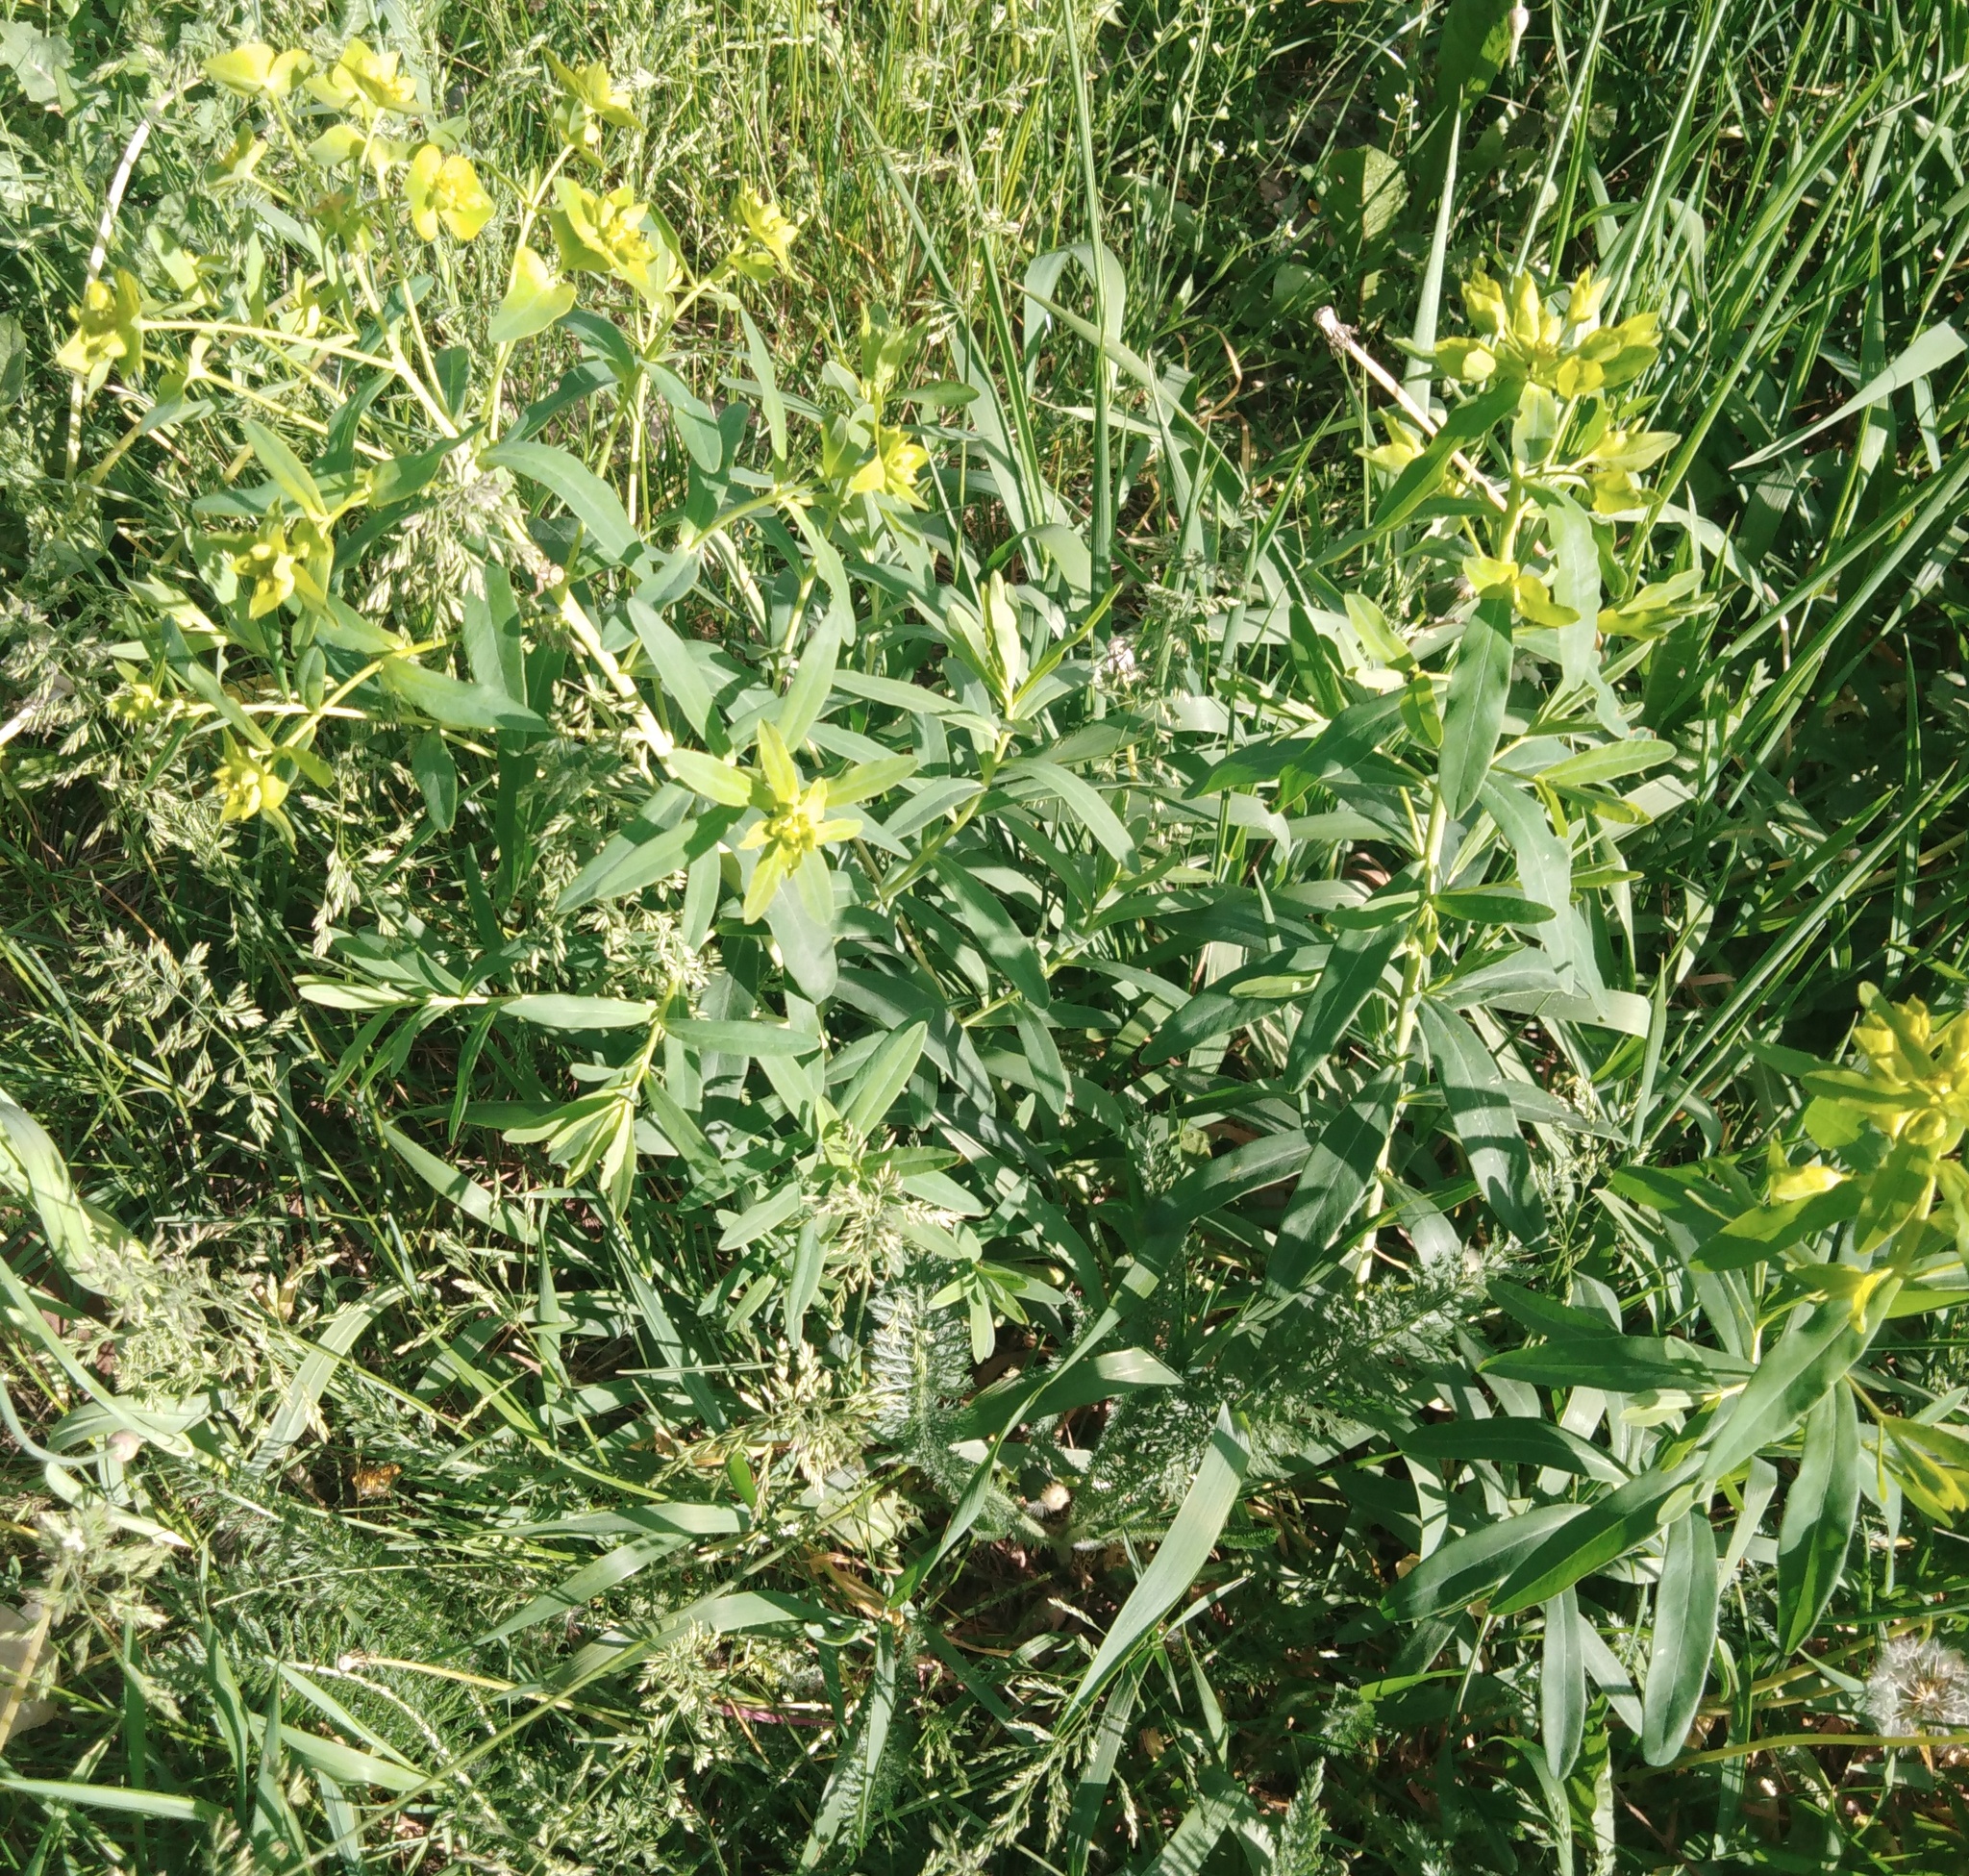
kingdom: Plantae
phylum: Tracheophyta
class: Magnoliopsida
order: Malpighiales
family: Euphorbiaceae
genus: Euphorbia
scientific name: Euphorbia virgata
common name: Leafy spurge
